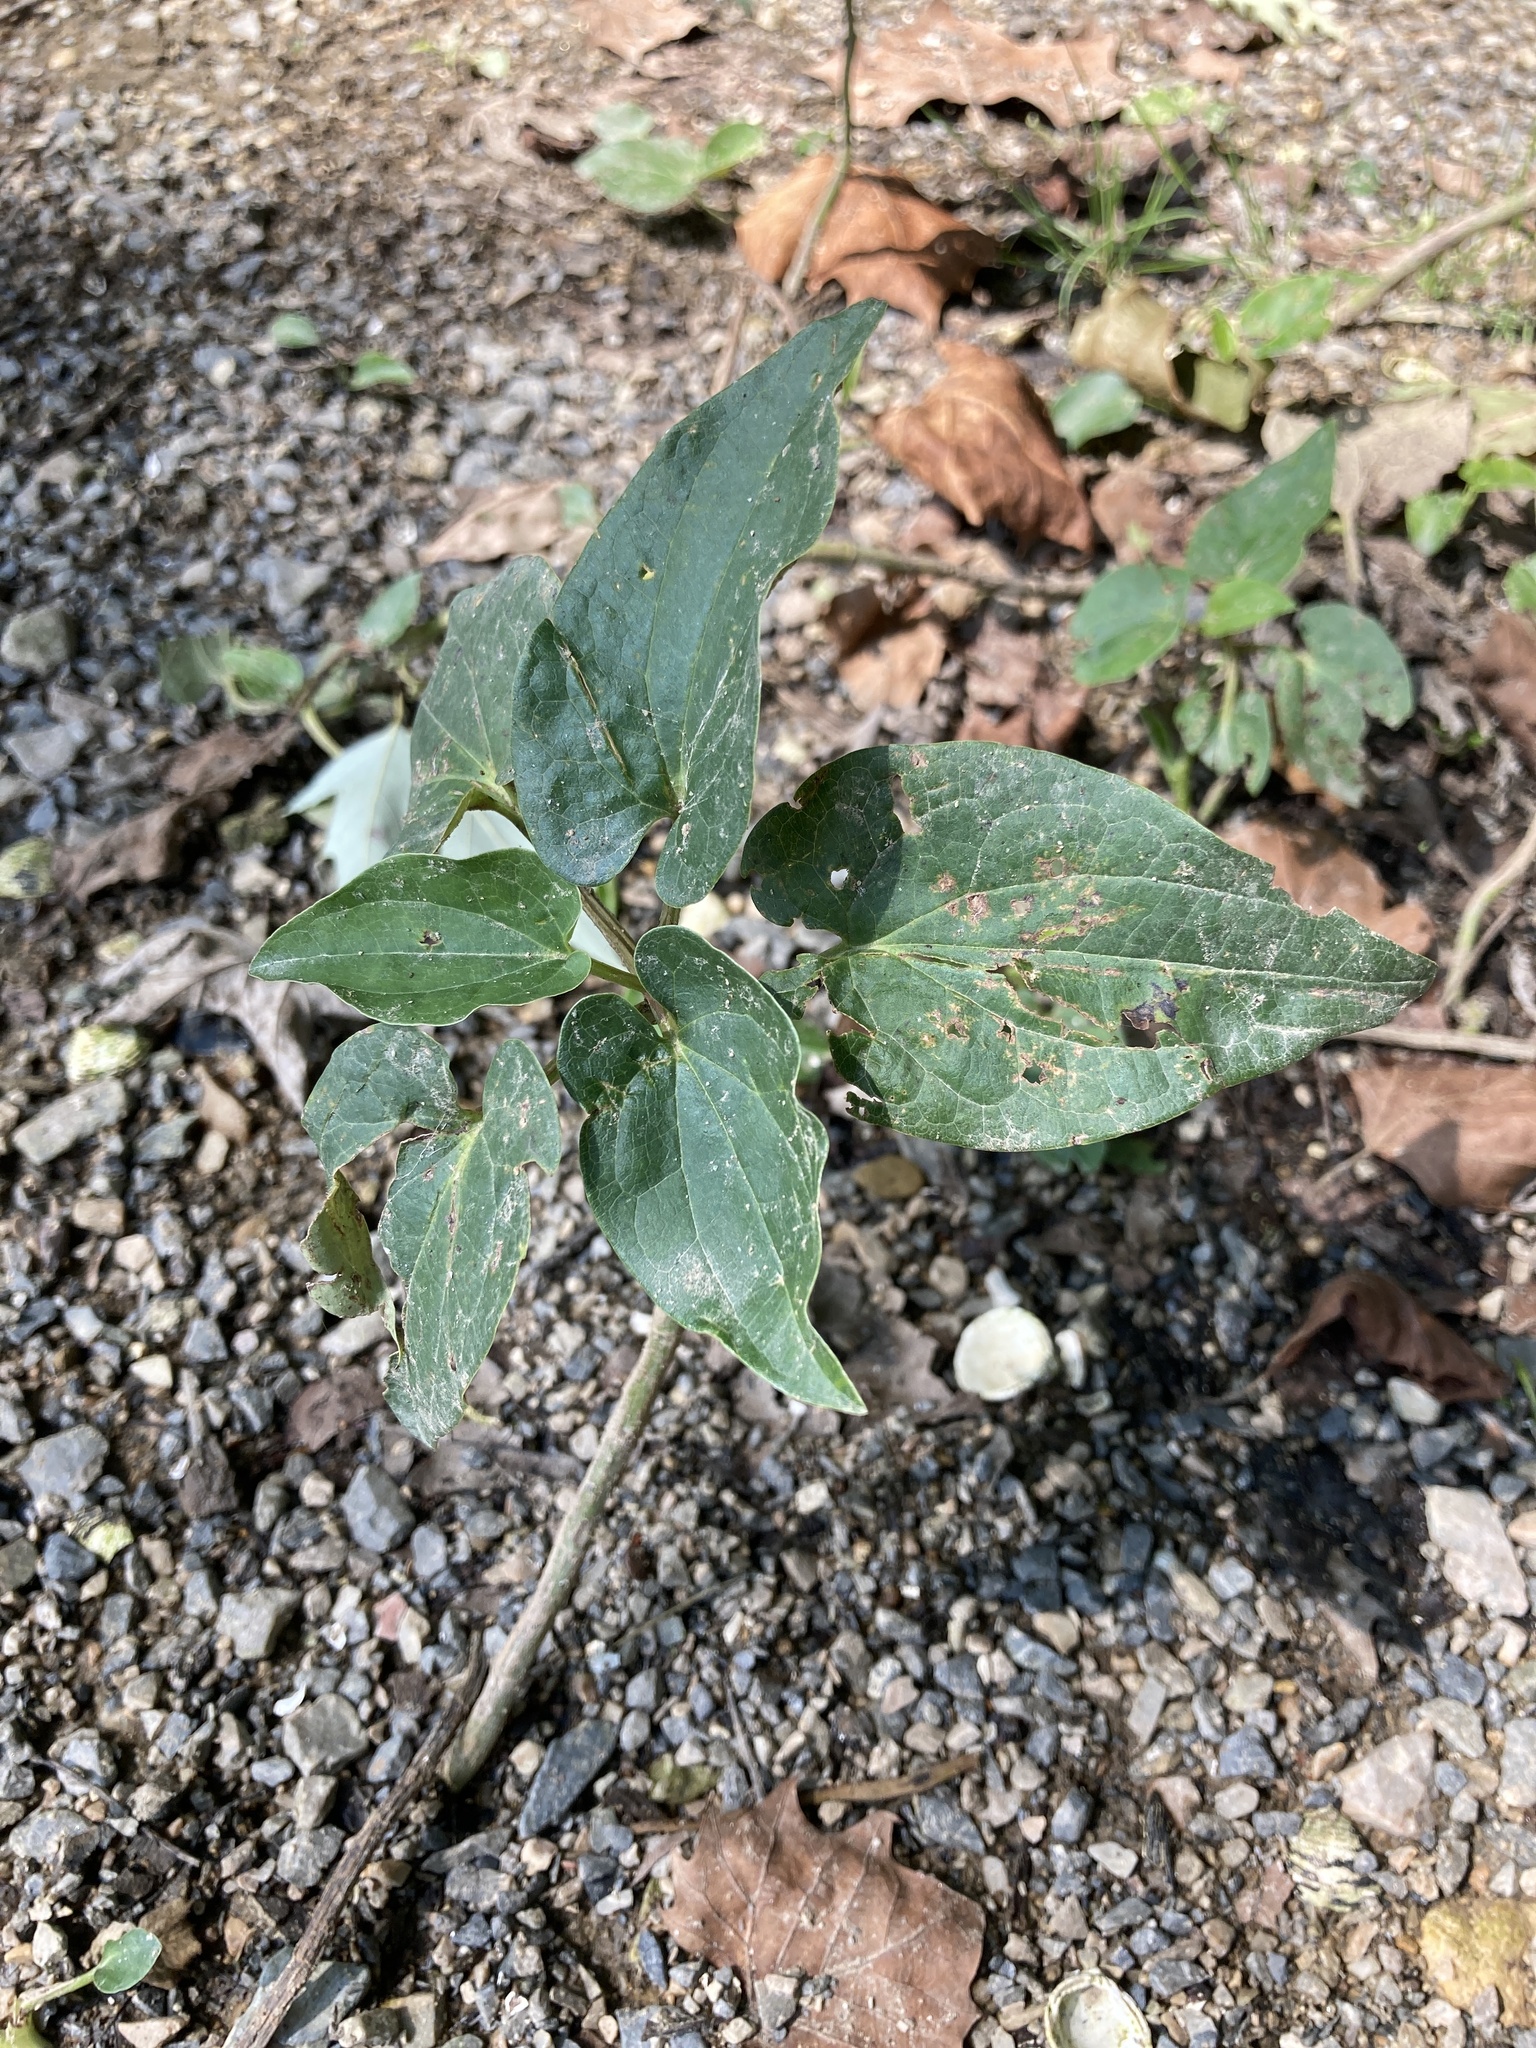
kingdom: Plantae
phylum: Tracheophyta
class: Magnoliopsida
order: Piperales
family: Saururaceae
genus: Saururus
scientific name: Saururus cernuus
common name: Lizard's-tail
